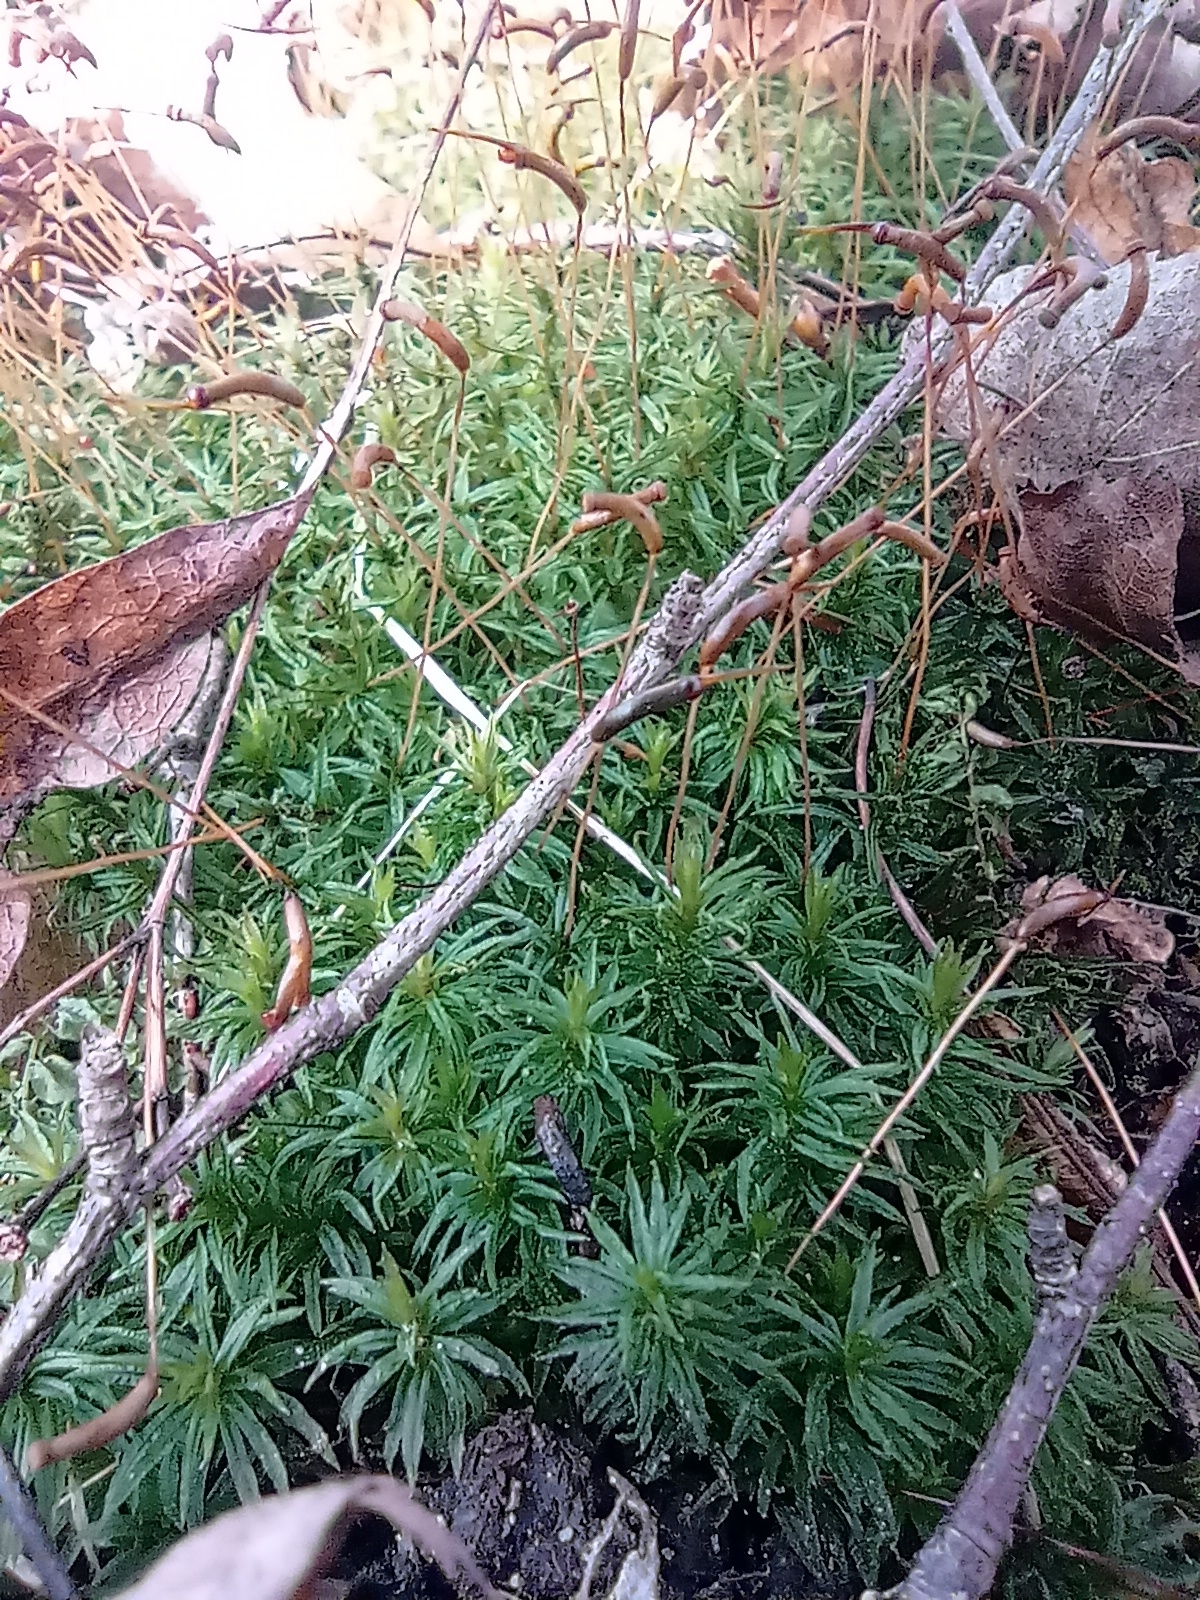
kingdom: Plantae
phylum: Bryophyta
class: Polytrichopsida
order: Polytrichales
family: Polytrichaceae
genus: Atrichum
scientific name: Atrichum undulatum
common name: Common smoothcap
